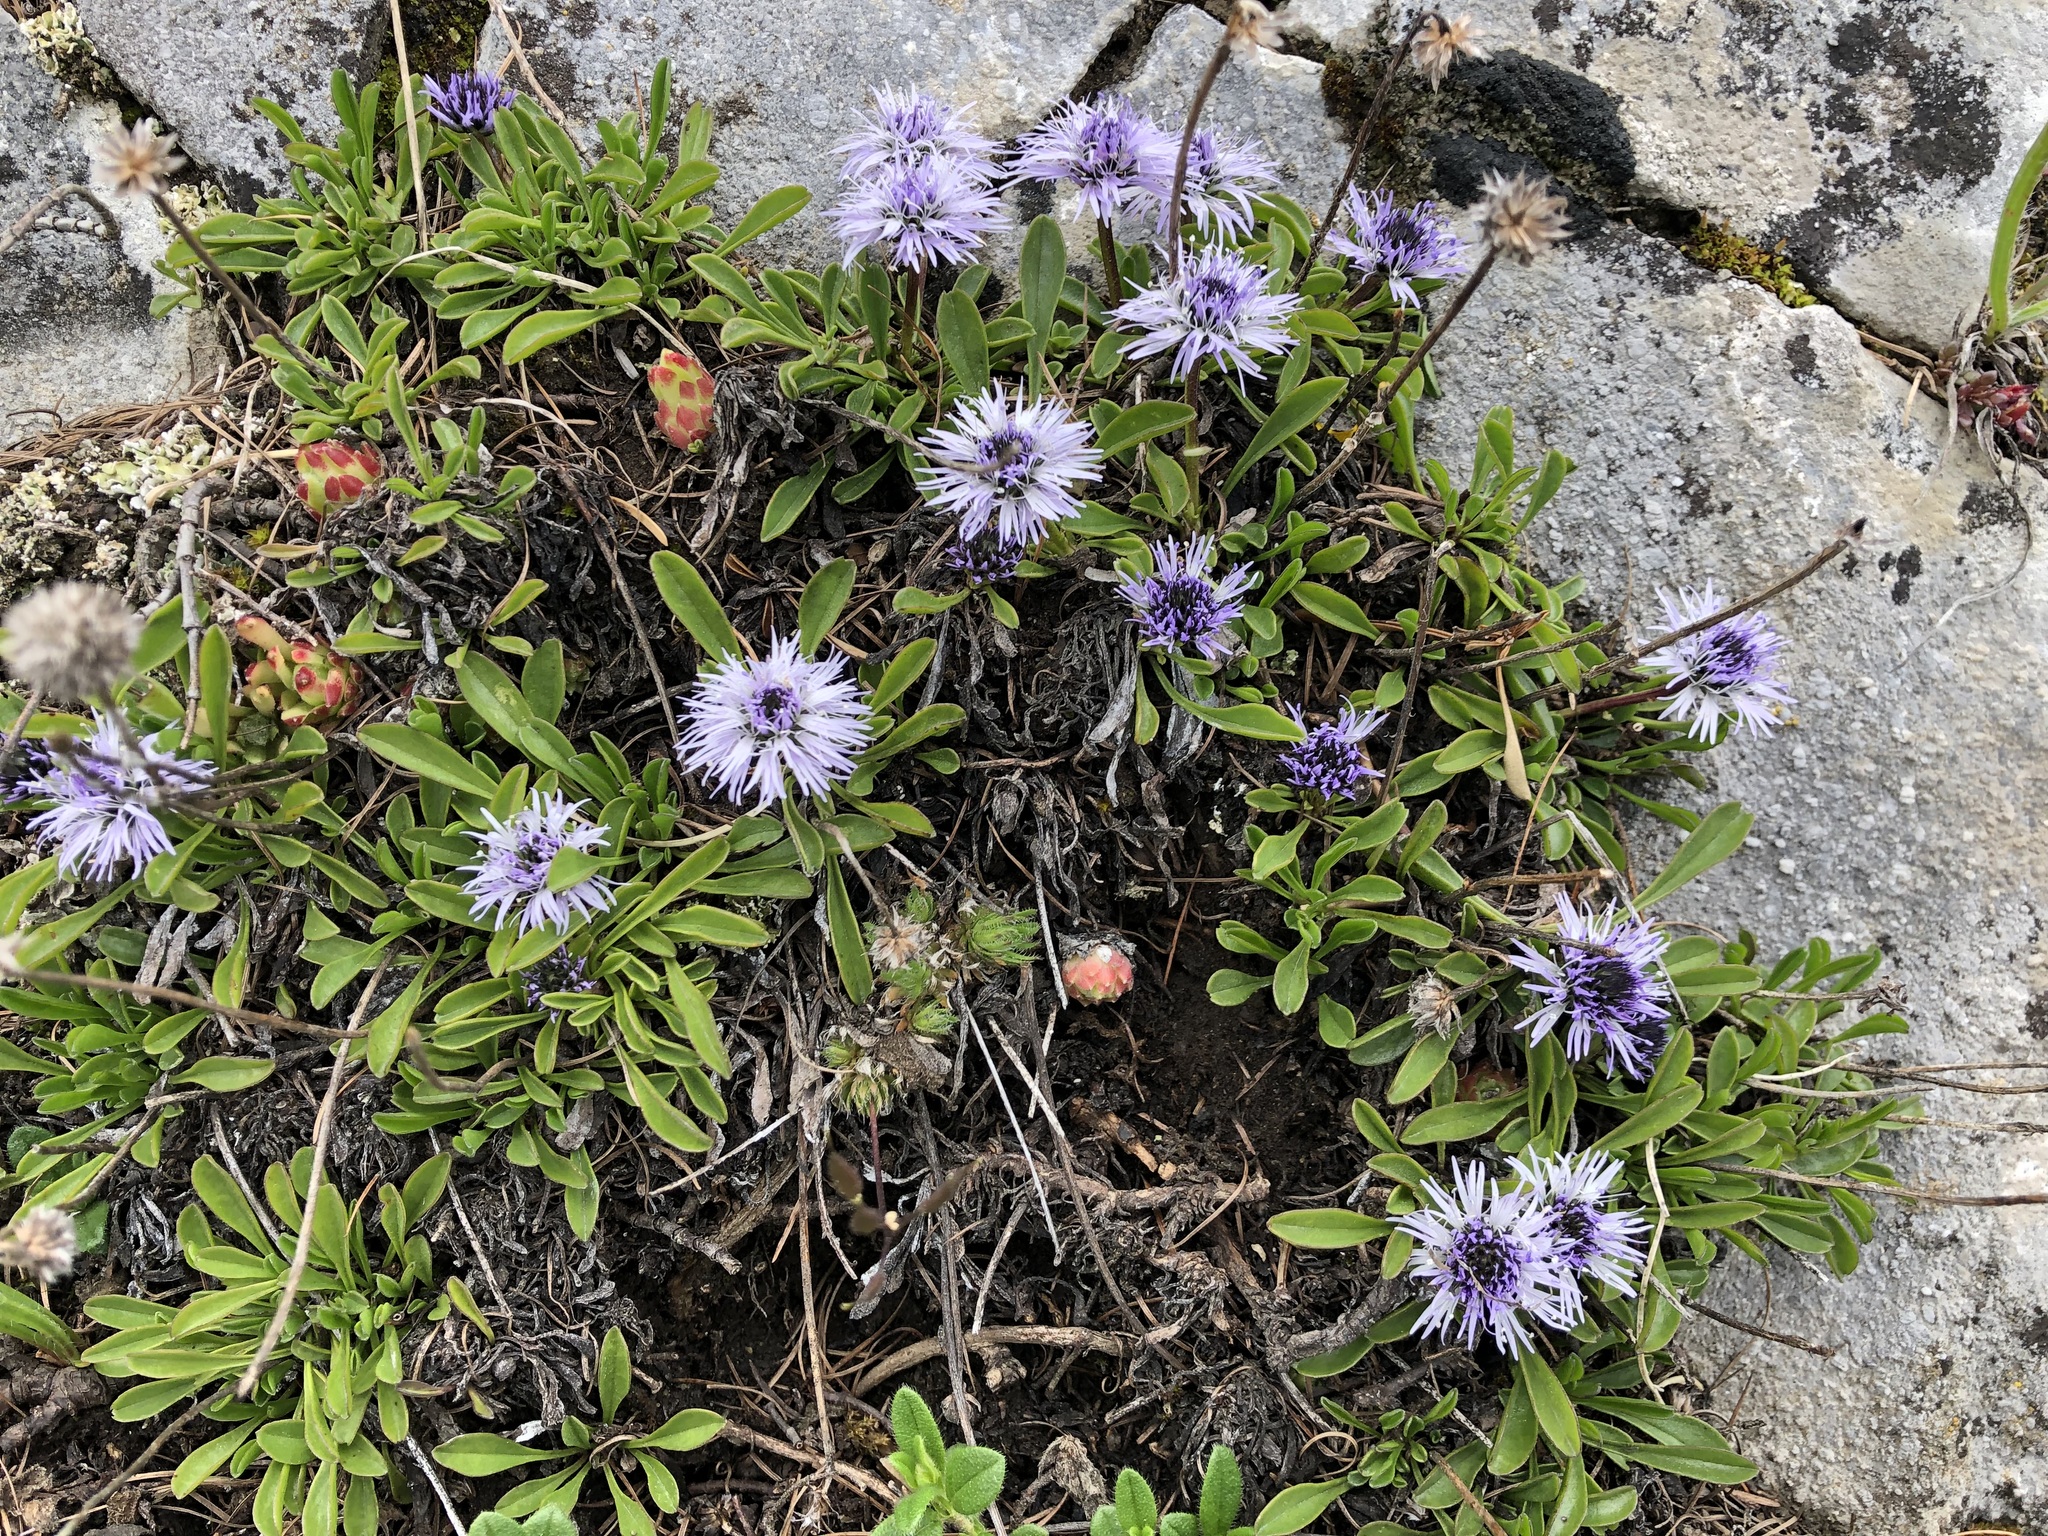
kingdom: Plantae
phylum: Tracheophyta
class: Magnoliopsida
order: Lamiales
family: Plantaginaceae
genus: Globularia
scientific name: Globularia cordifolia
